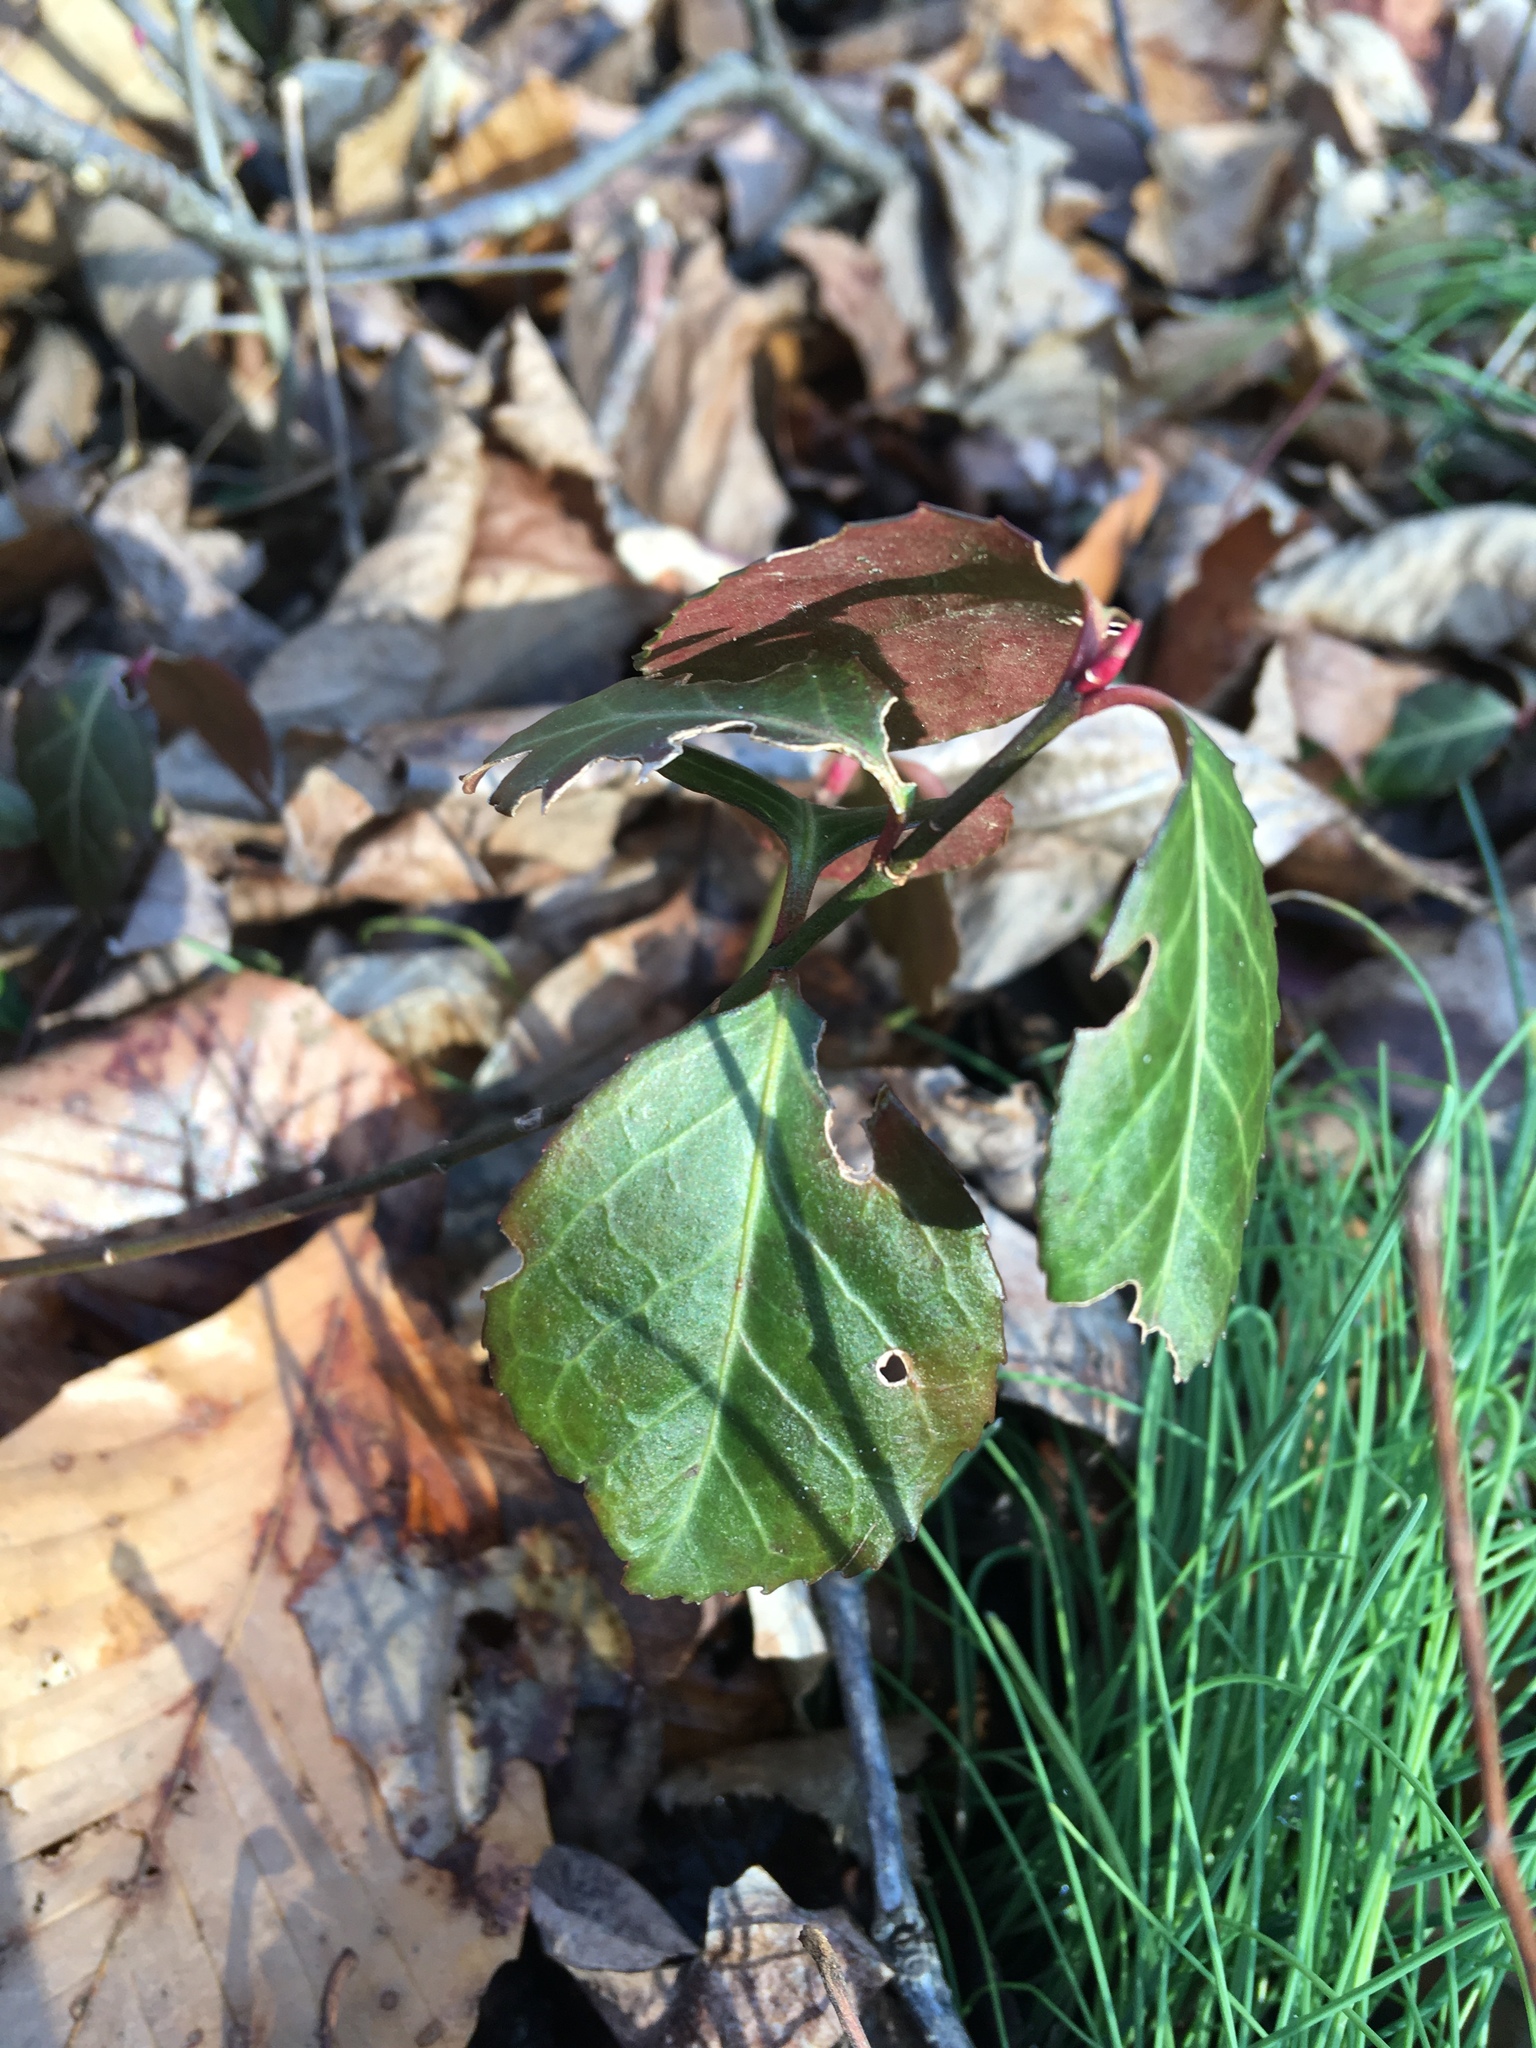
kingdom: Plantae
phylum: Tracheophyta
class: Magnoliopsida
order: Celastrales
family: Celastraceae
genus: Euonymus
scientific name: Euonymus fortunei
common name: Climbing euonymus
